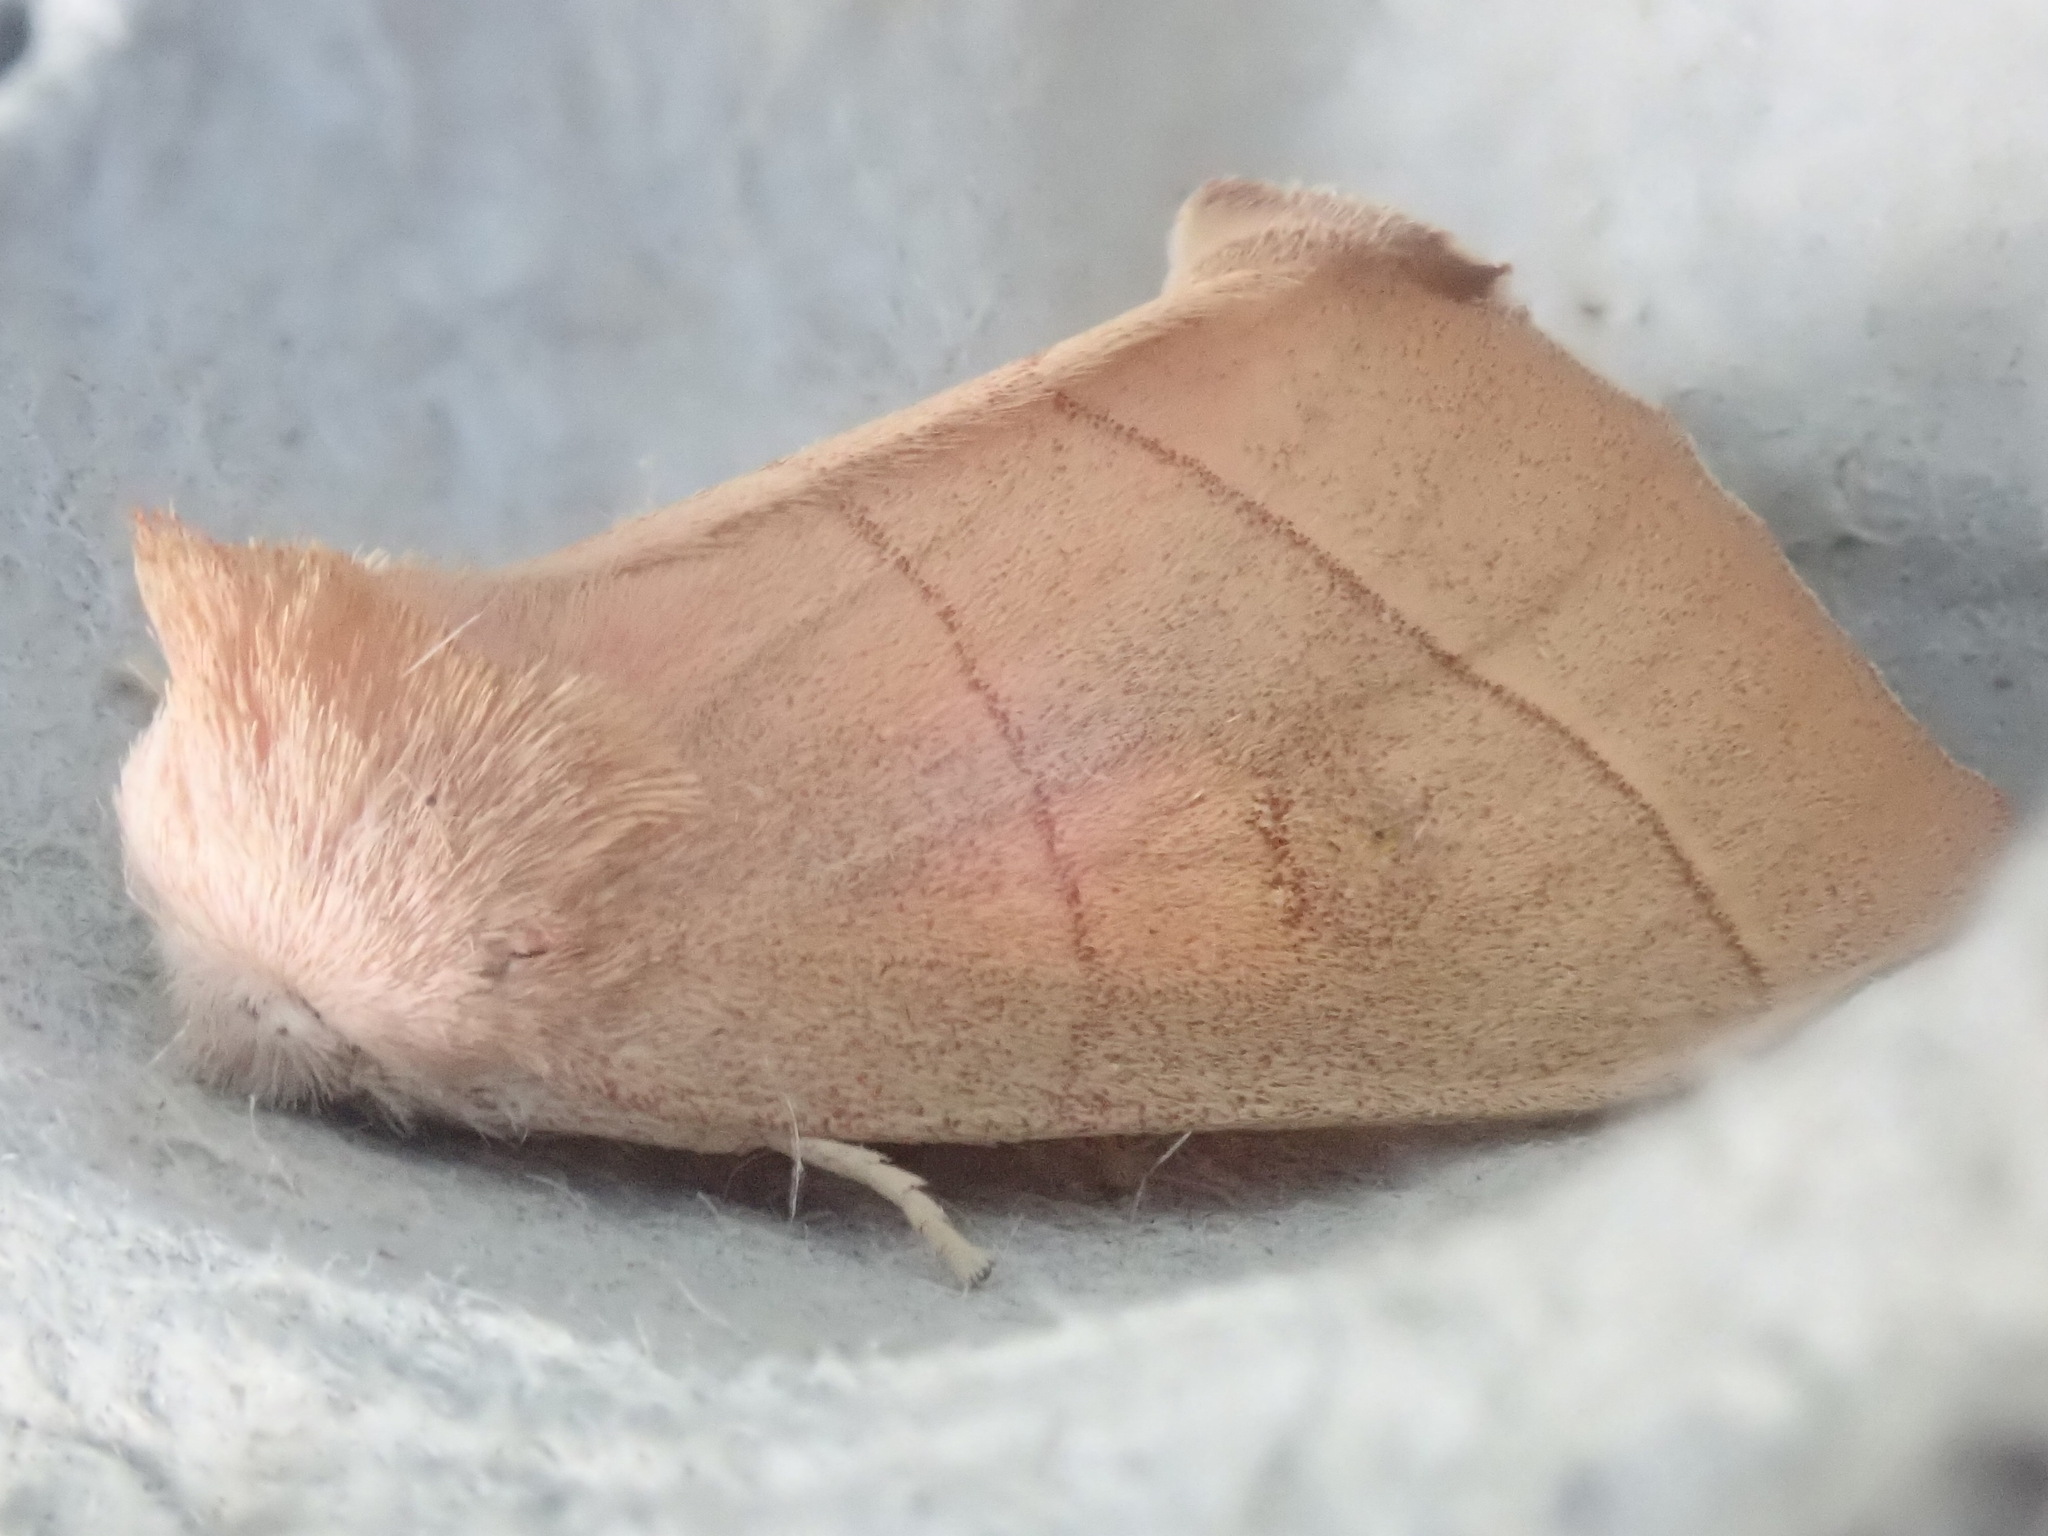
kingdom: Animalia
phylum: Arthropoda
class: Insecta
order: Lepidoptera
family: Notodontidae
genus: Nadata
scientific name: Nadata gibbosa
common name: White-dotted prominent
